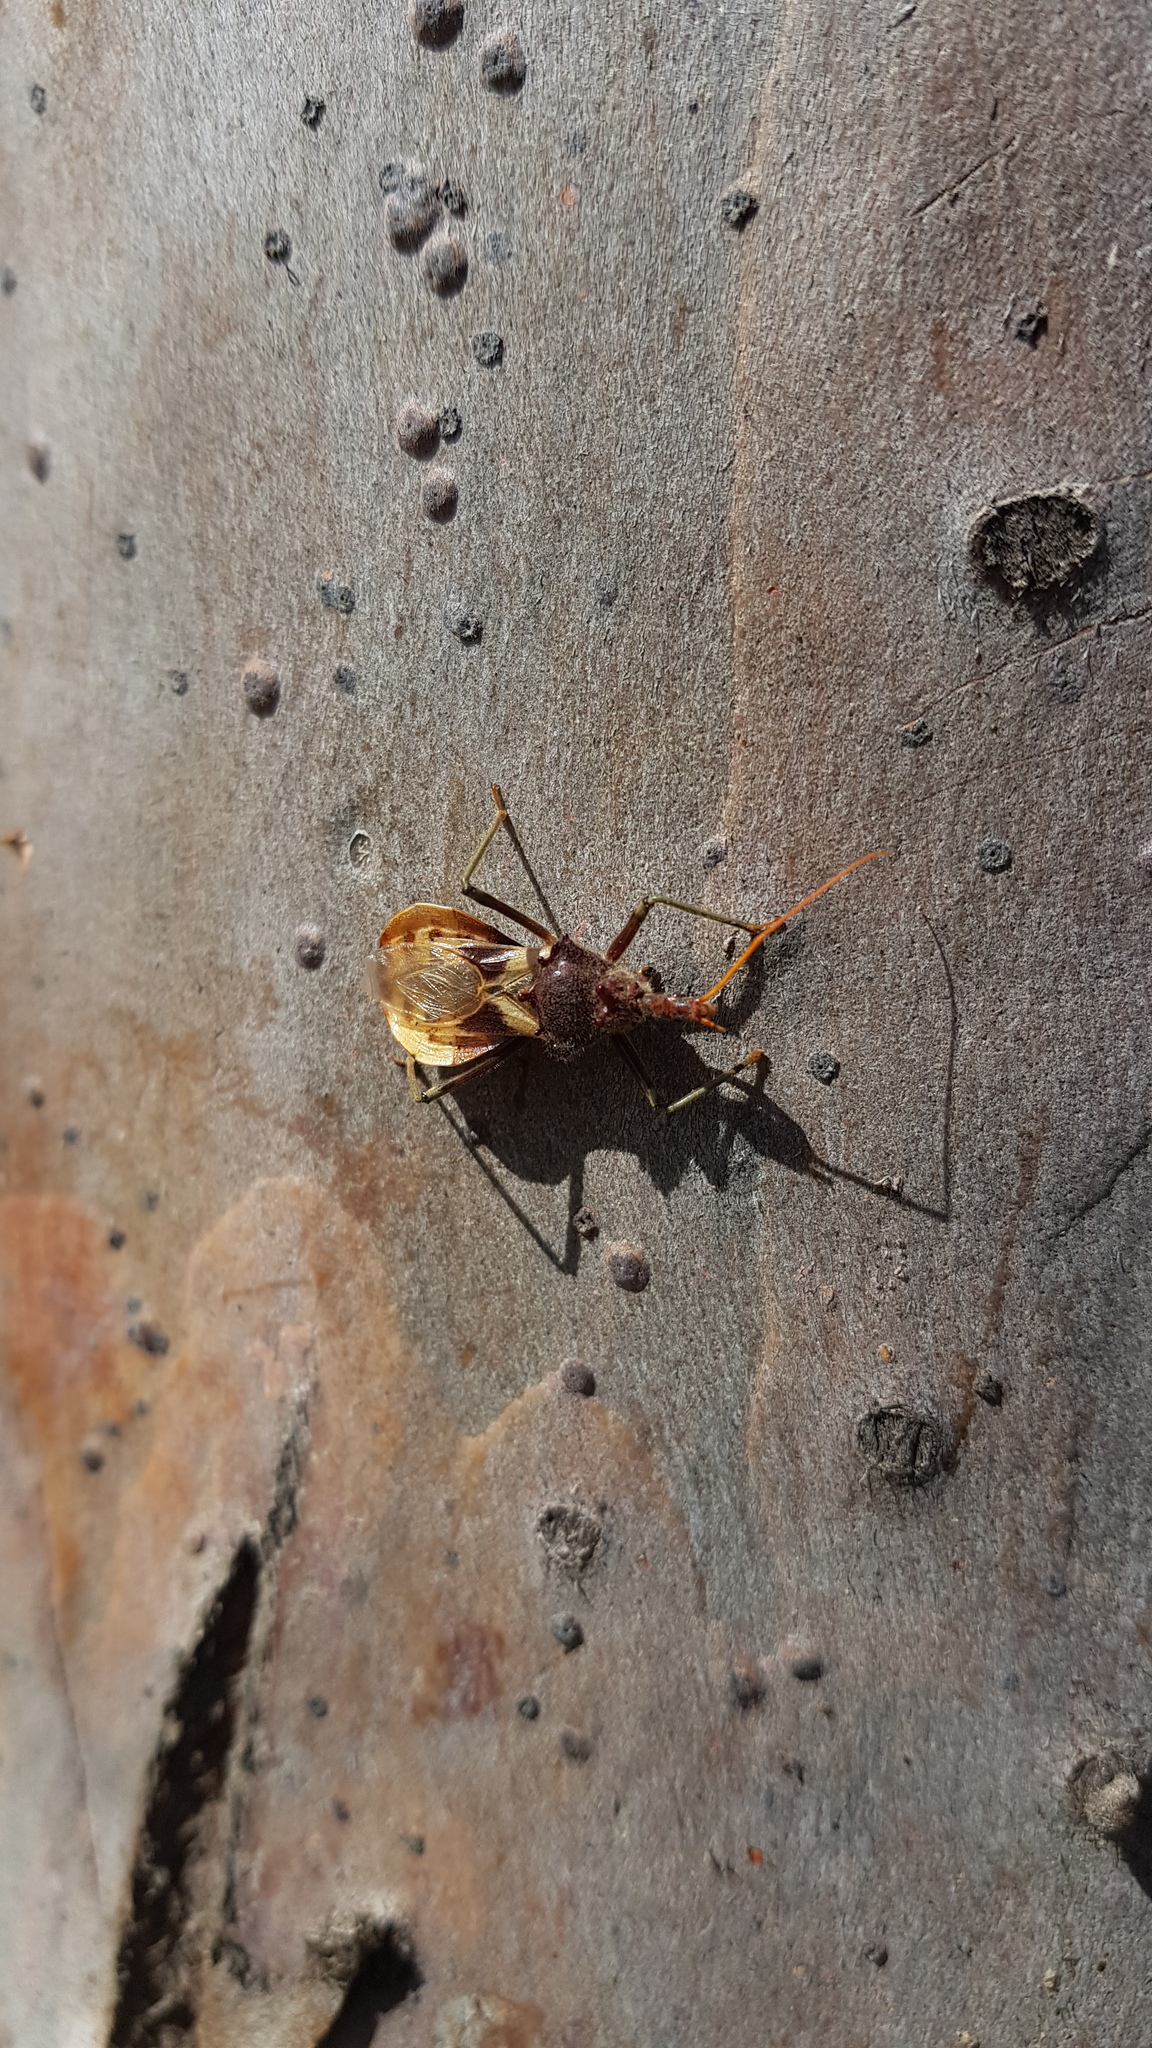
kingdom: Animalia
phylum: Arthropoda
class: Insecta
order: Hemiptera
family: Reduviidae
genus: Pristhesancus
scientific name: Pristhesancus plagipennis
